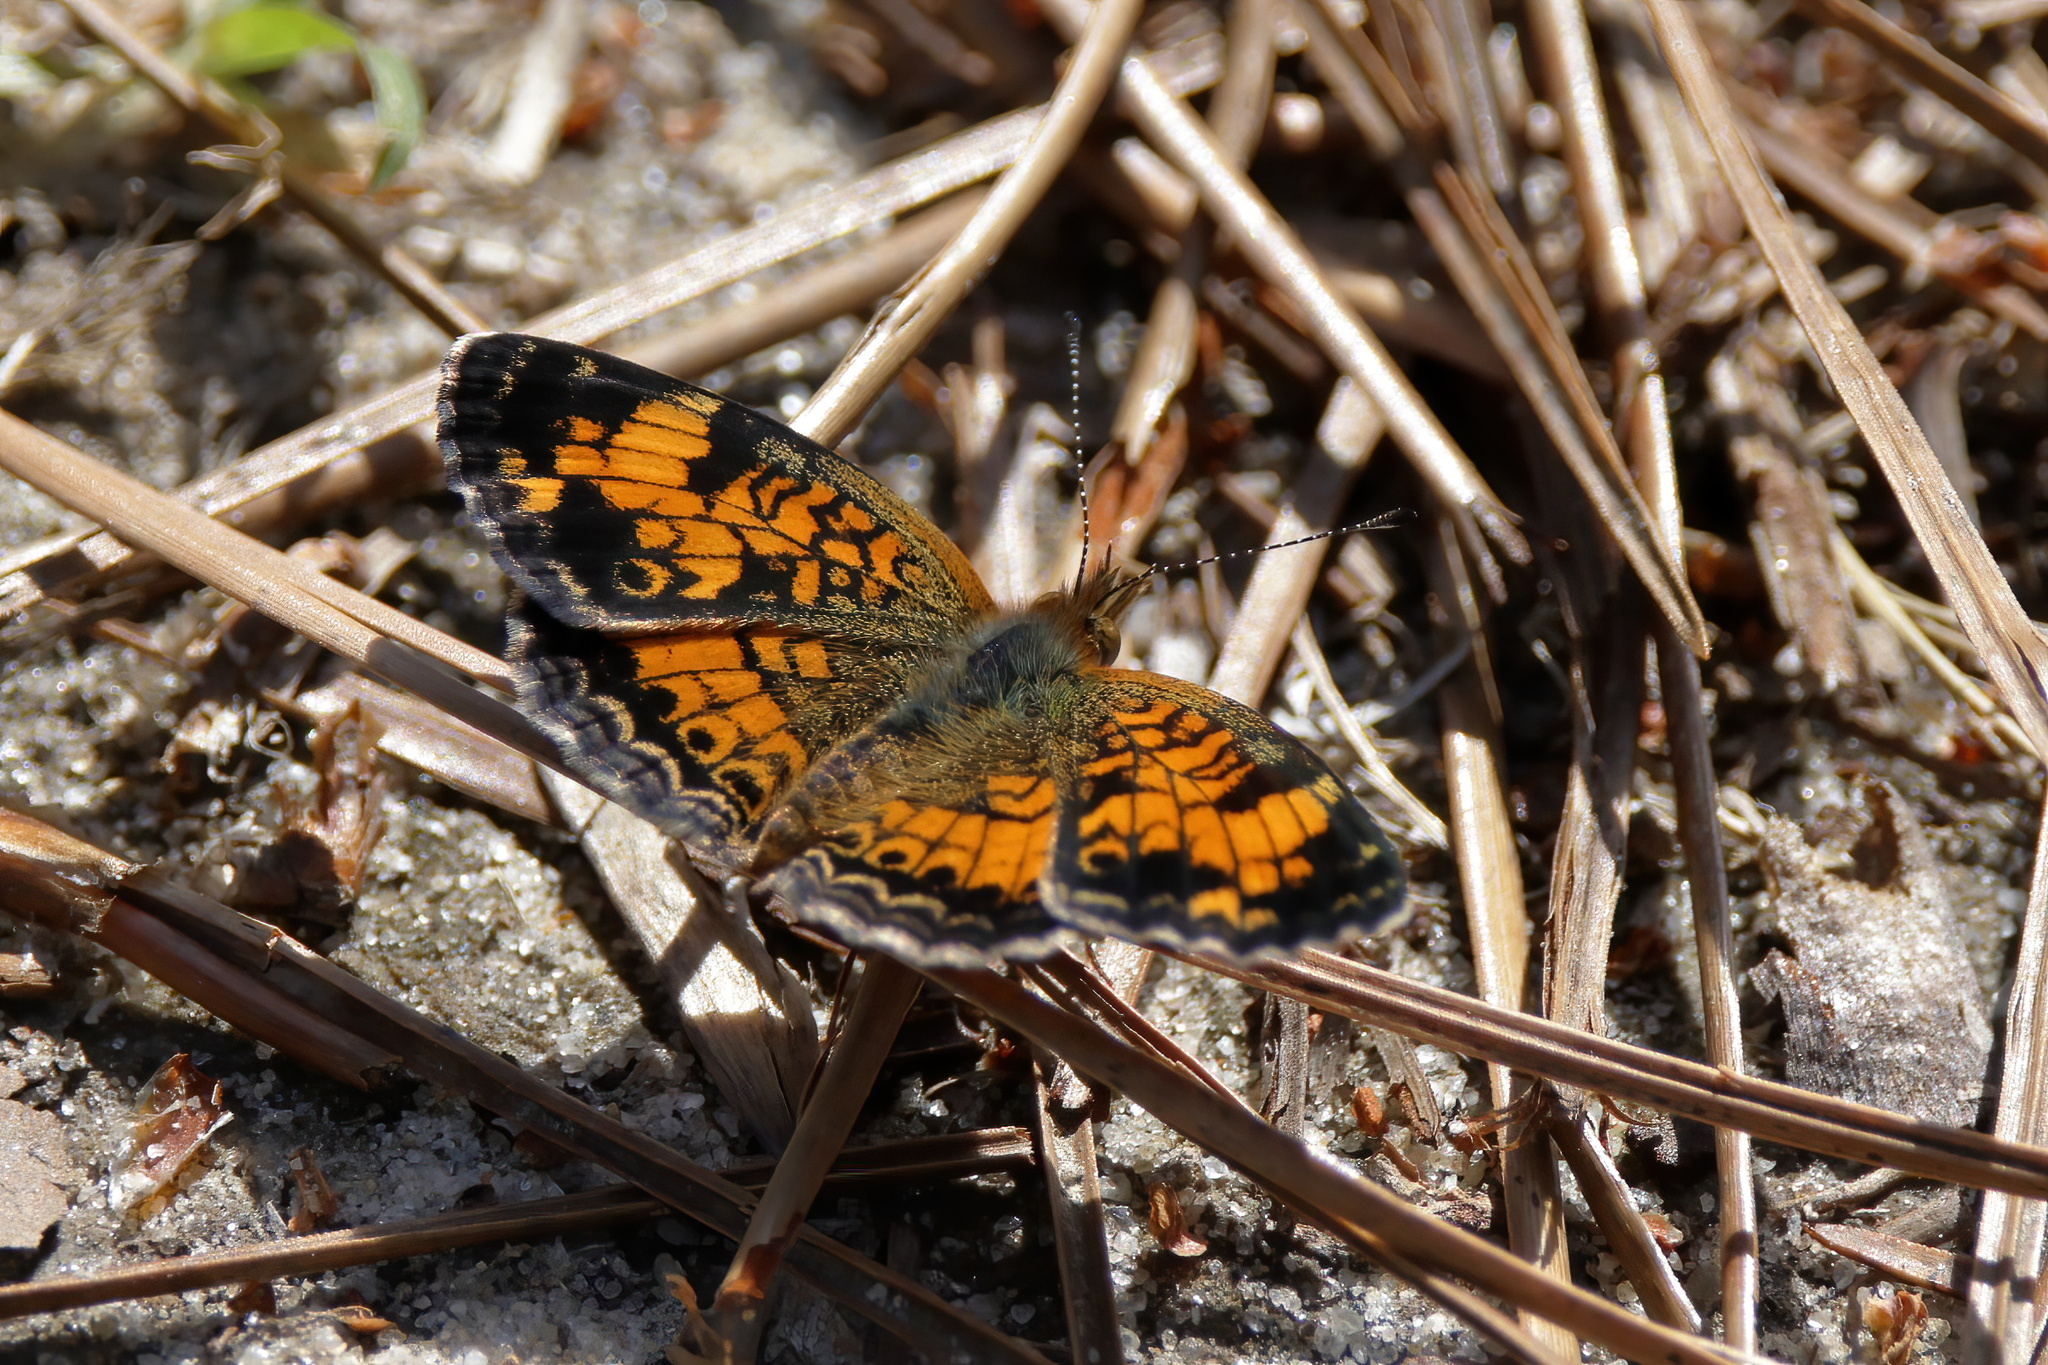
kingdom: Animalia
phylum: Arthropoda
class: Insecta
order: Lepidoptera
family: Nymphalidae
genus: Phyciodes
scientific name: Phyciodes tharos
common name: Pearl crescent
